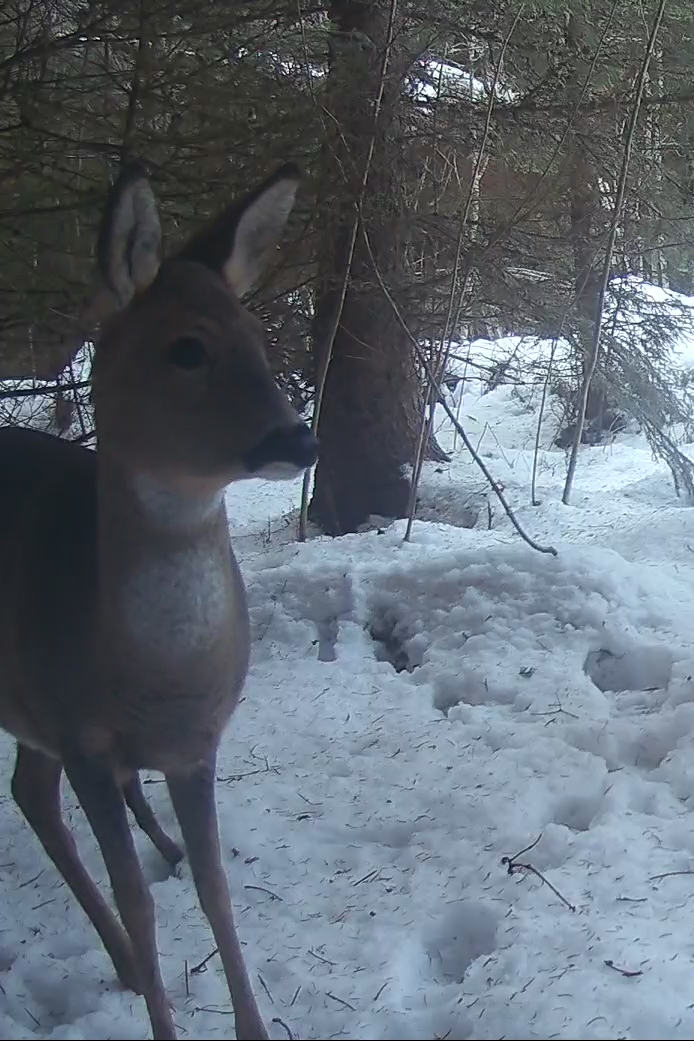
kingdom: Animalia
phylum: Chordata
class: Mammalia
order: Artiodactyla
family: Cervidae
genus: Capreolus
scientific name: Capreolus capreolus
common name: Western roe deer
